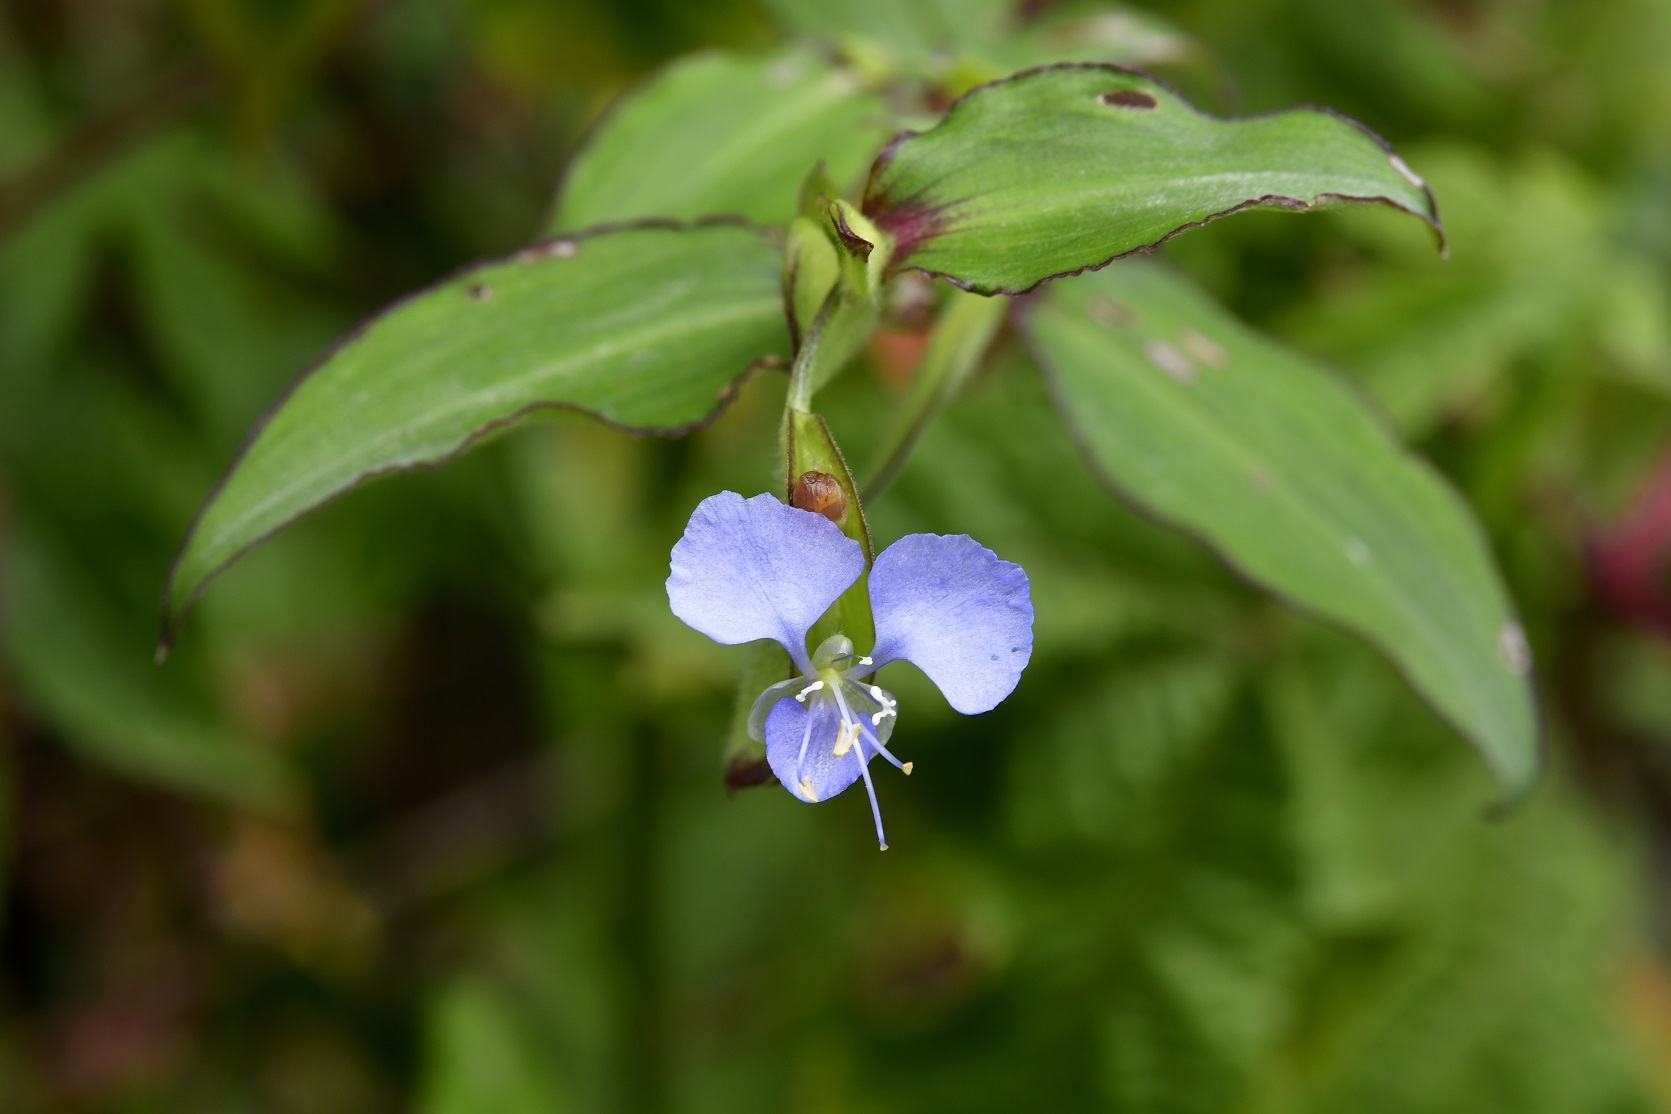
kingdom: Plantae
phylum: Tracheophyta
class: Liliopsida
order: Commelinales
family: Commelinaceae
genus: Commelina
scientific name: Commelina diffusa
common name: Climbing dayflower
